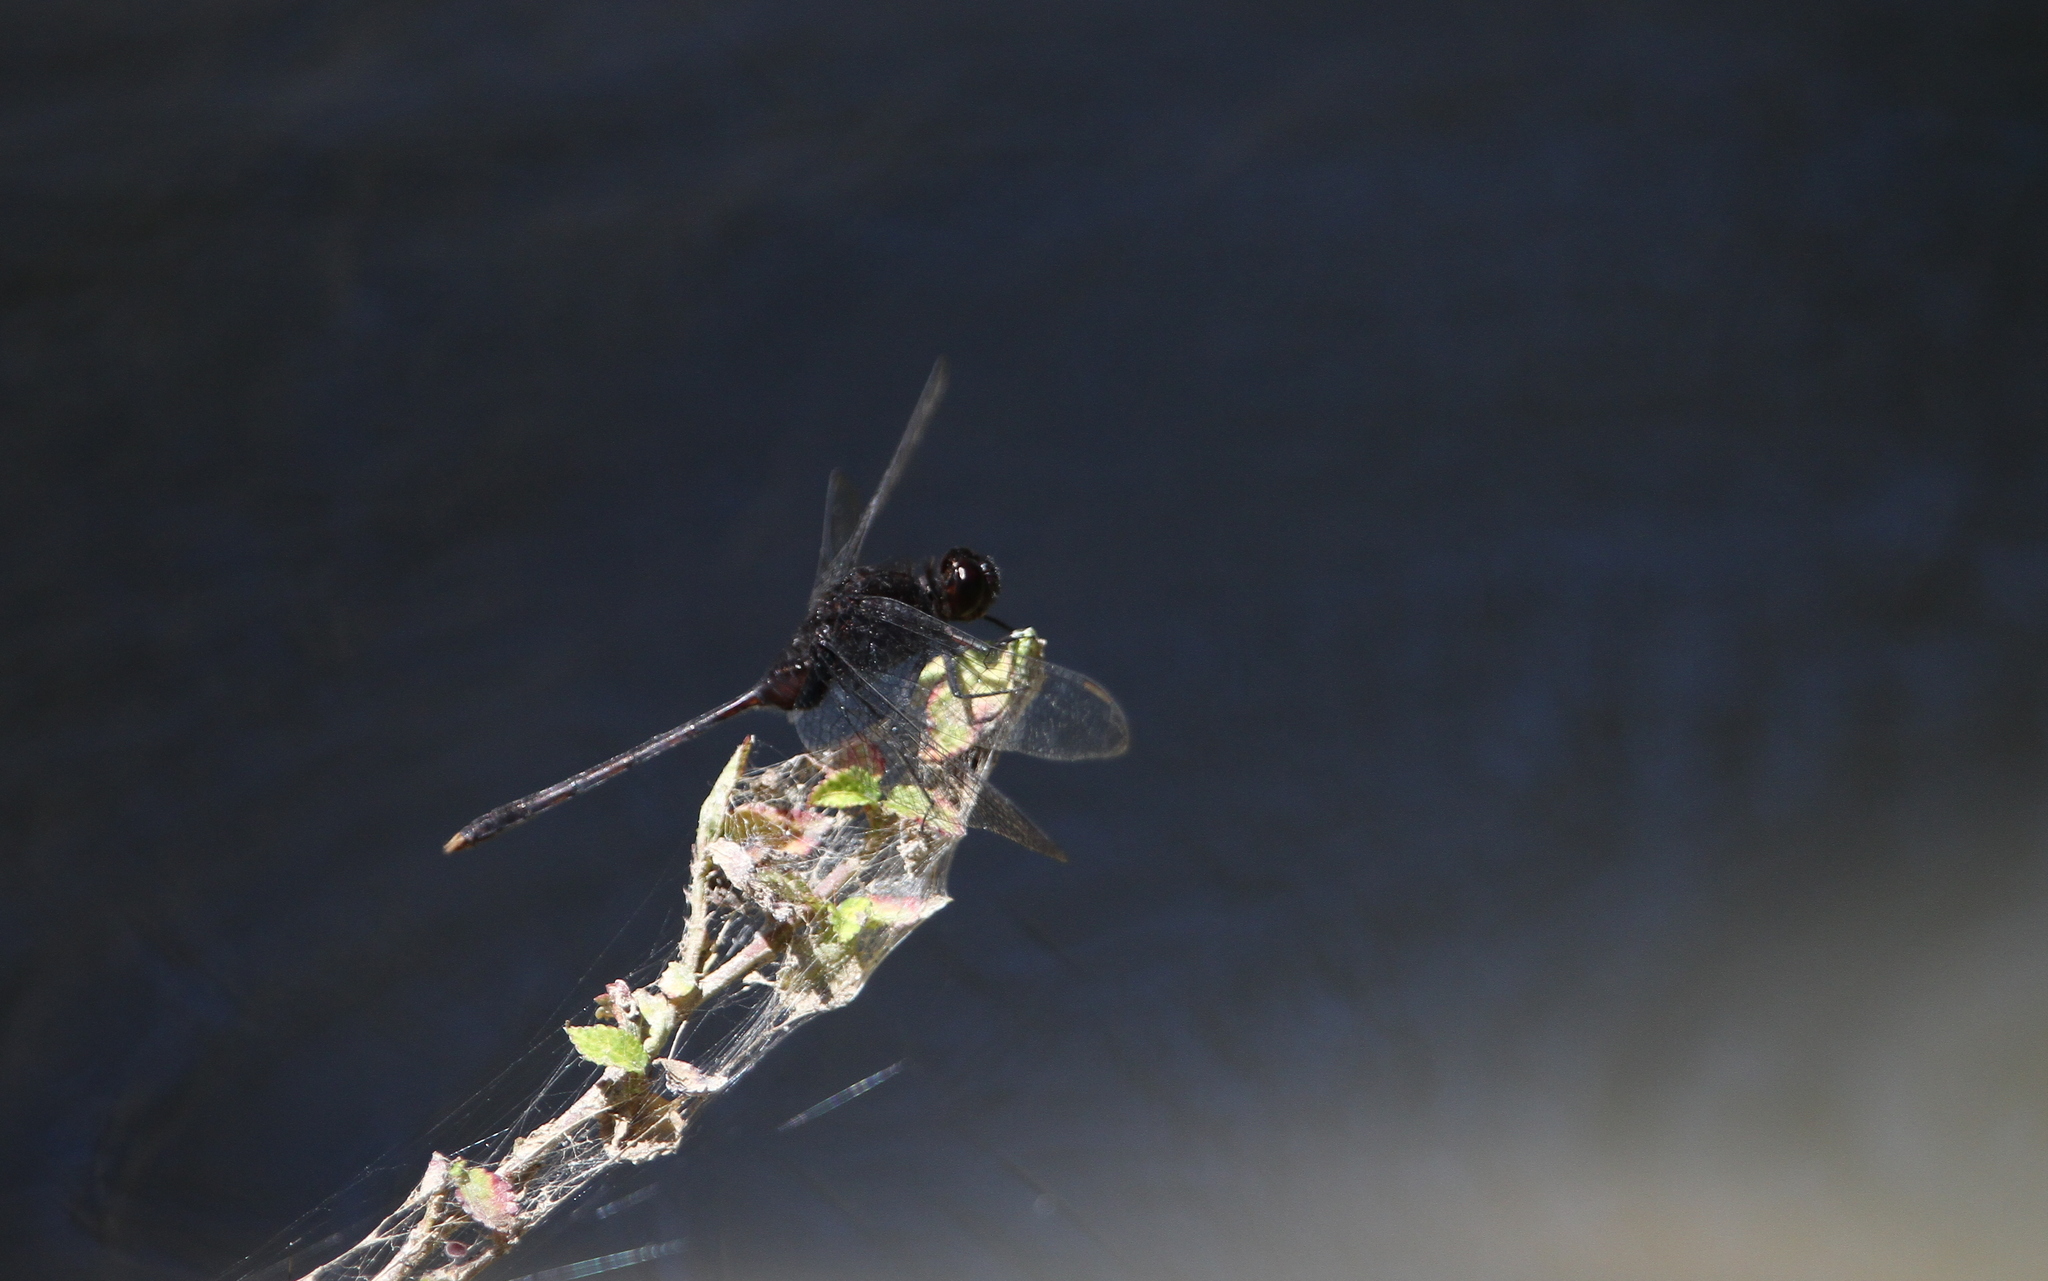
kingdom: Animalia
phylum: Arthropoda
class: Insecta
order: Odonata
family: Libellulidae
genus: Erythemis
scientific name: Erythemis plebeja
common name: Pin-tailed pondhawk
